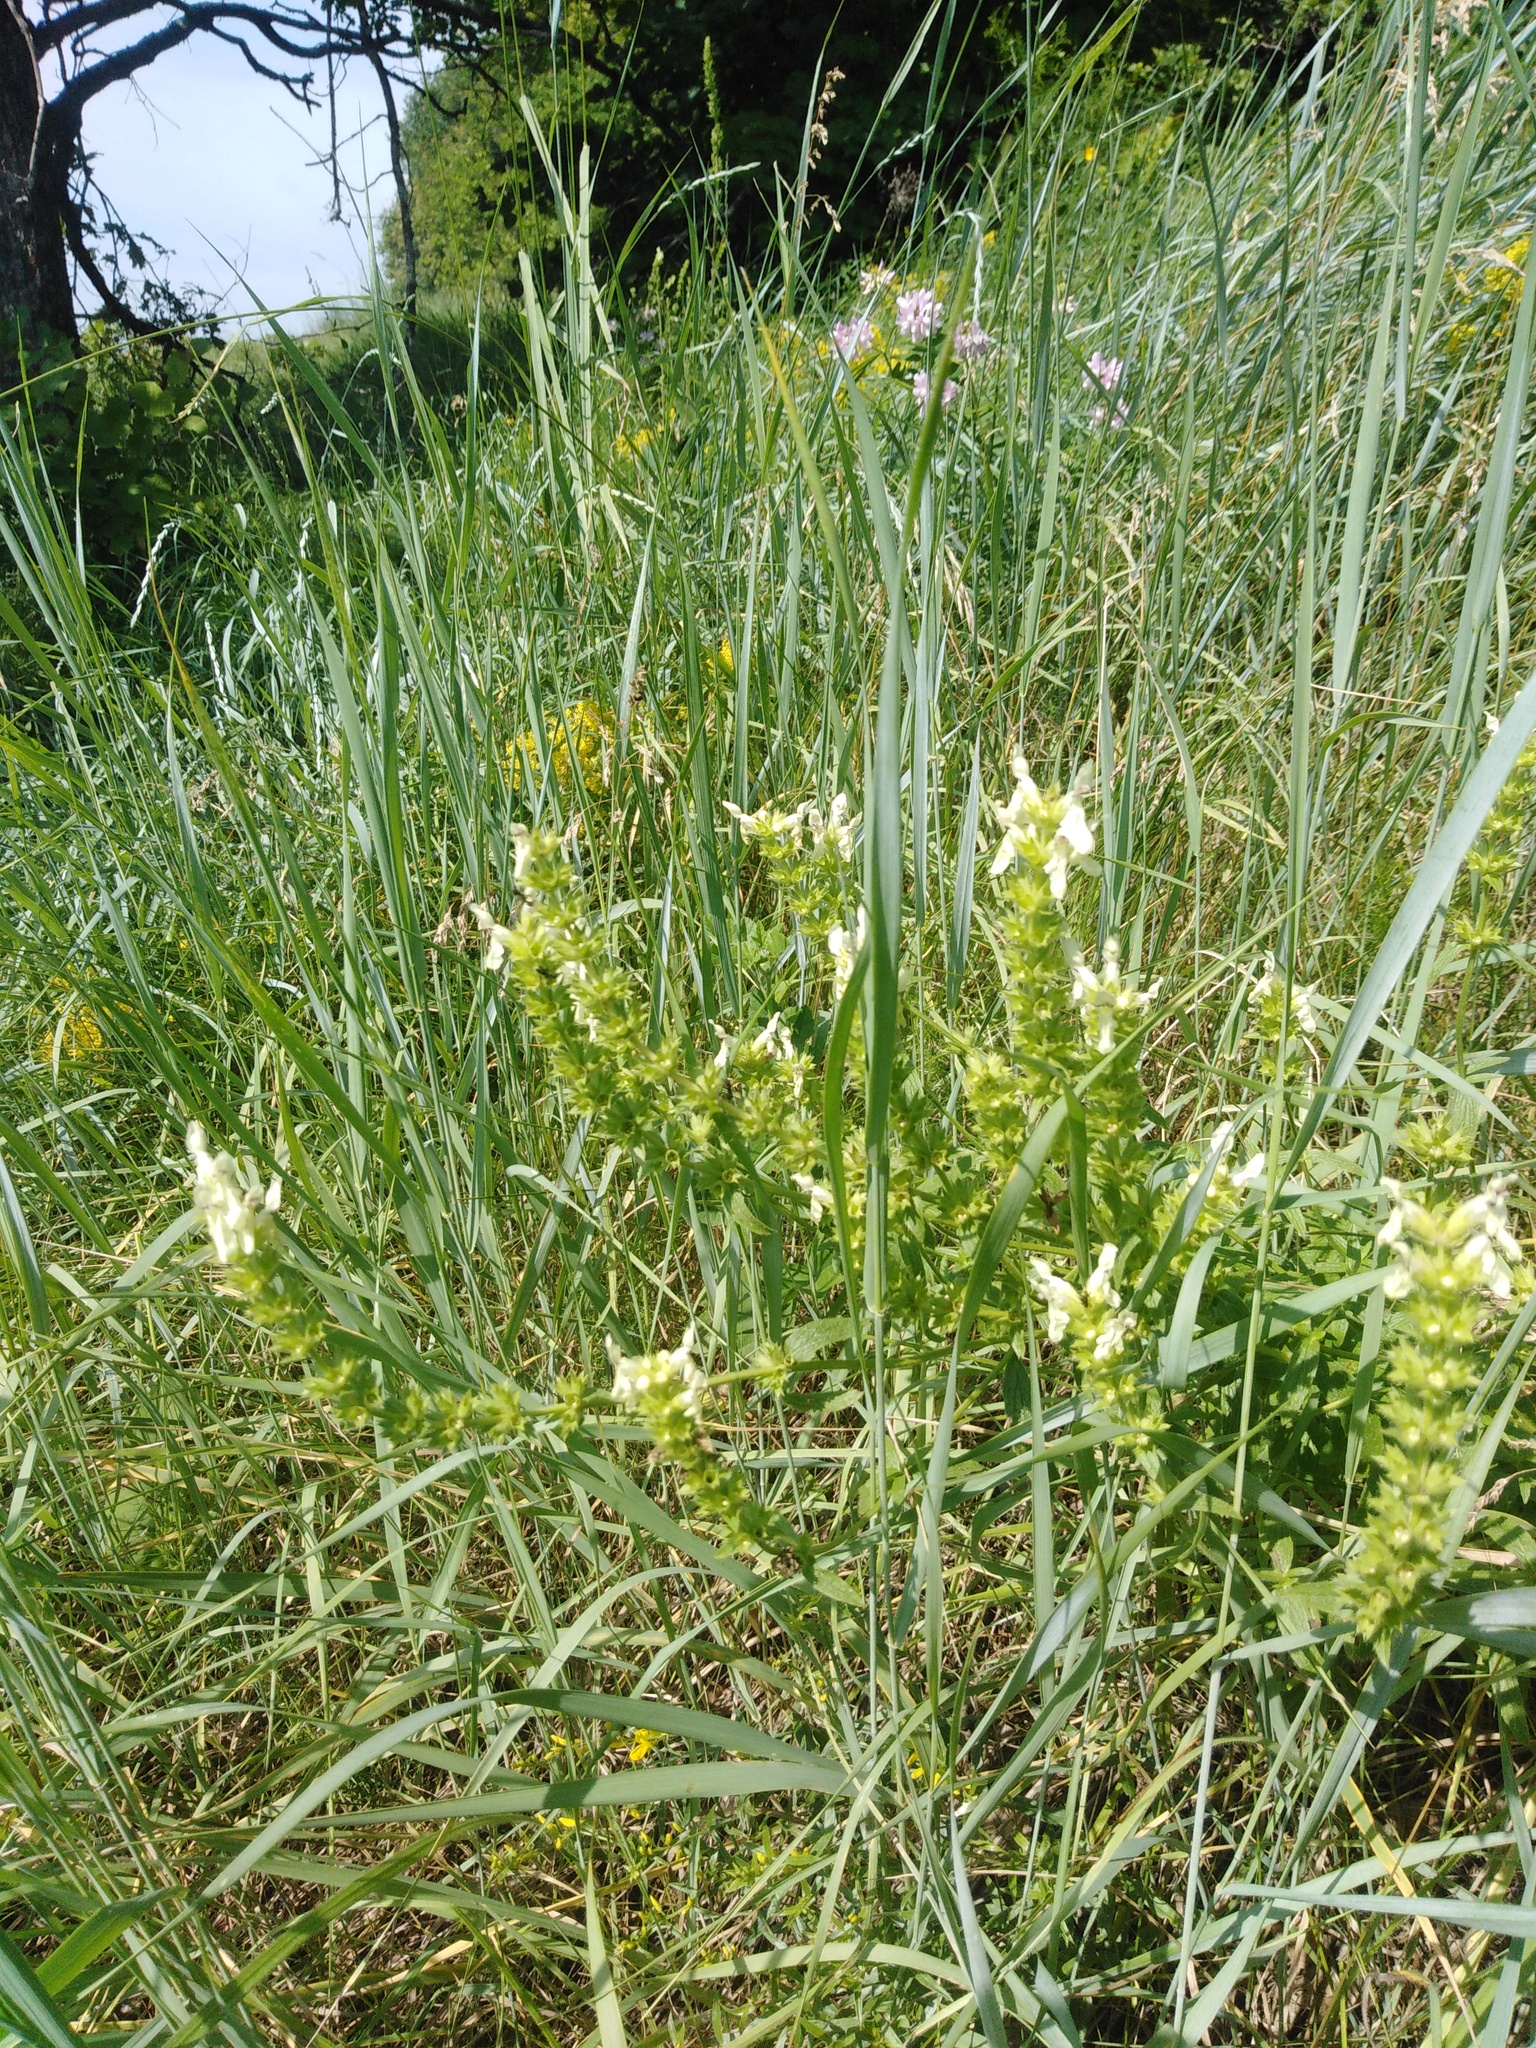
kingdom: Plantae
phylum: Tracheophyta
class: Magnoliopsida
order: Lamiales
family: Lamiaceae
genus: Stachys
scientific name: Stachys recta
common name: Perennial yellow-woundwort
